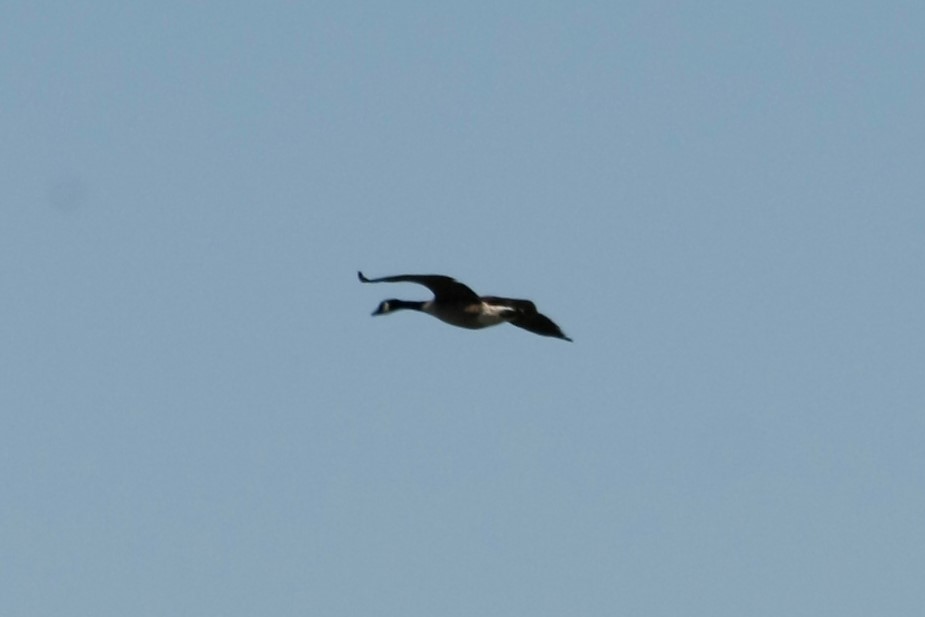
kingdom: Animalia
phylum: Chordata
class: Aves
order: Anseriformes
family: Anatidae
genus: Branta
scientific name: Branta canadensis
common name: Canada goose
